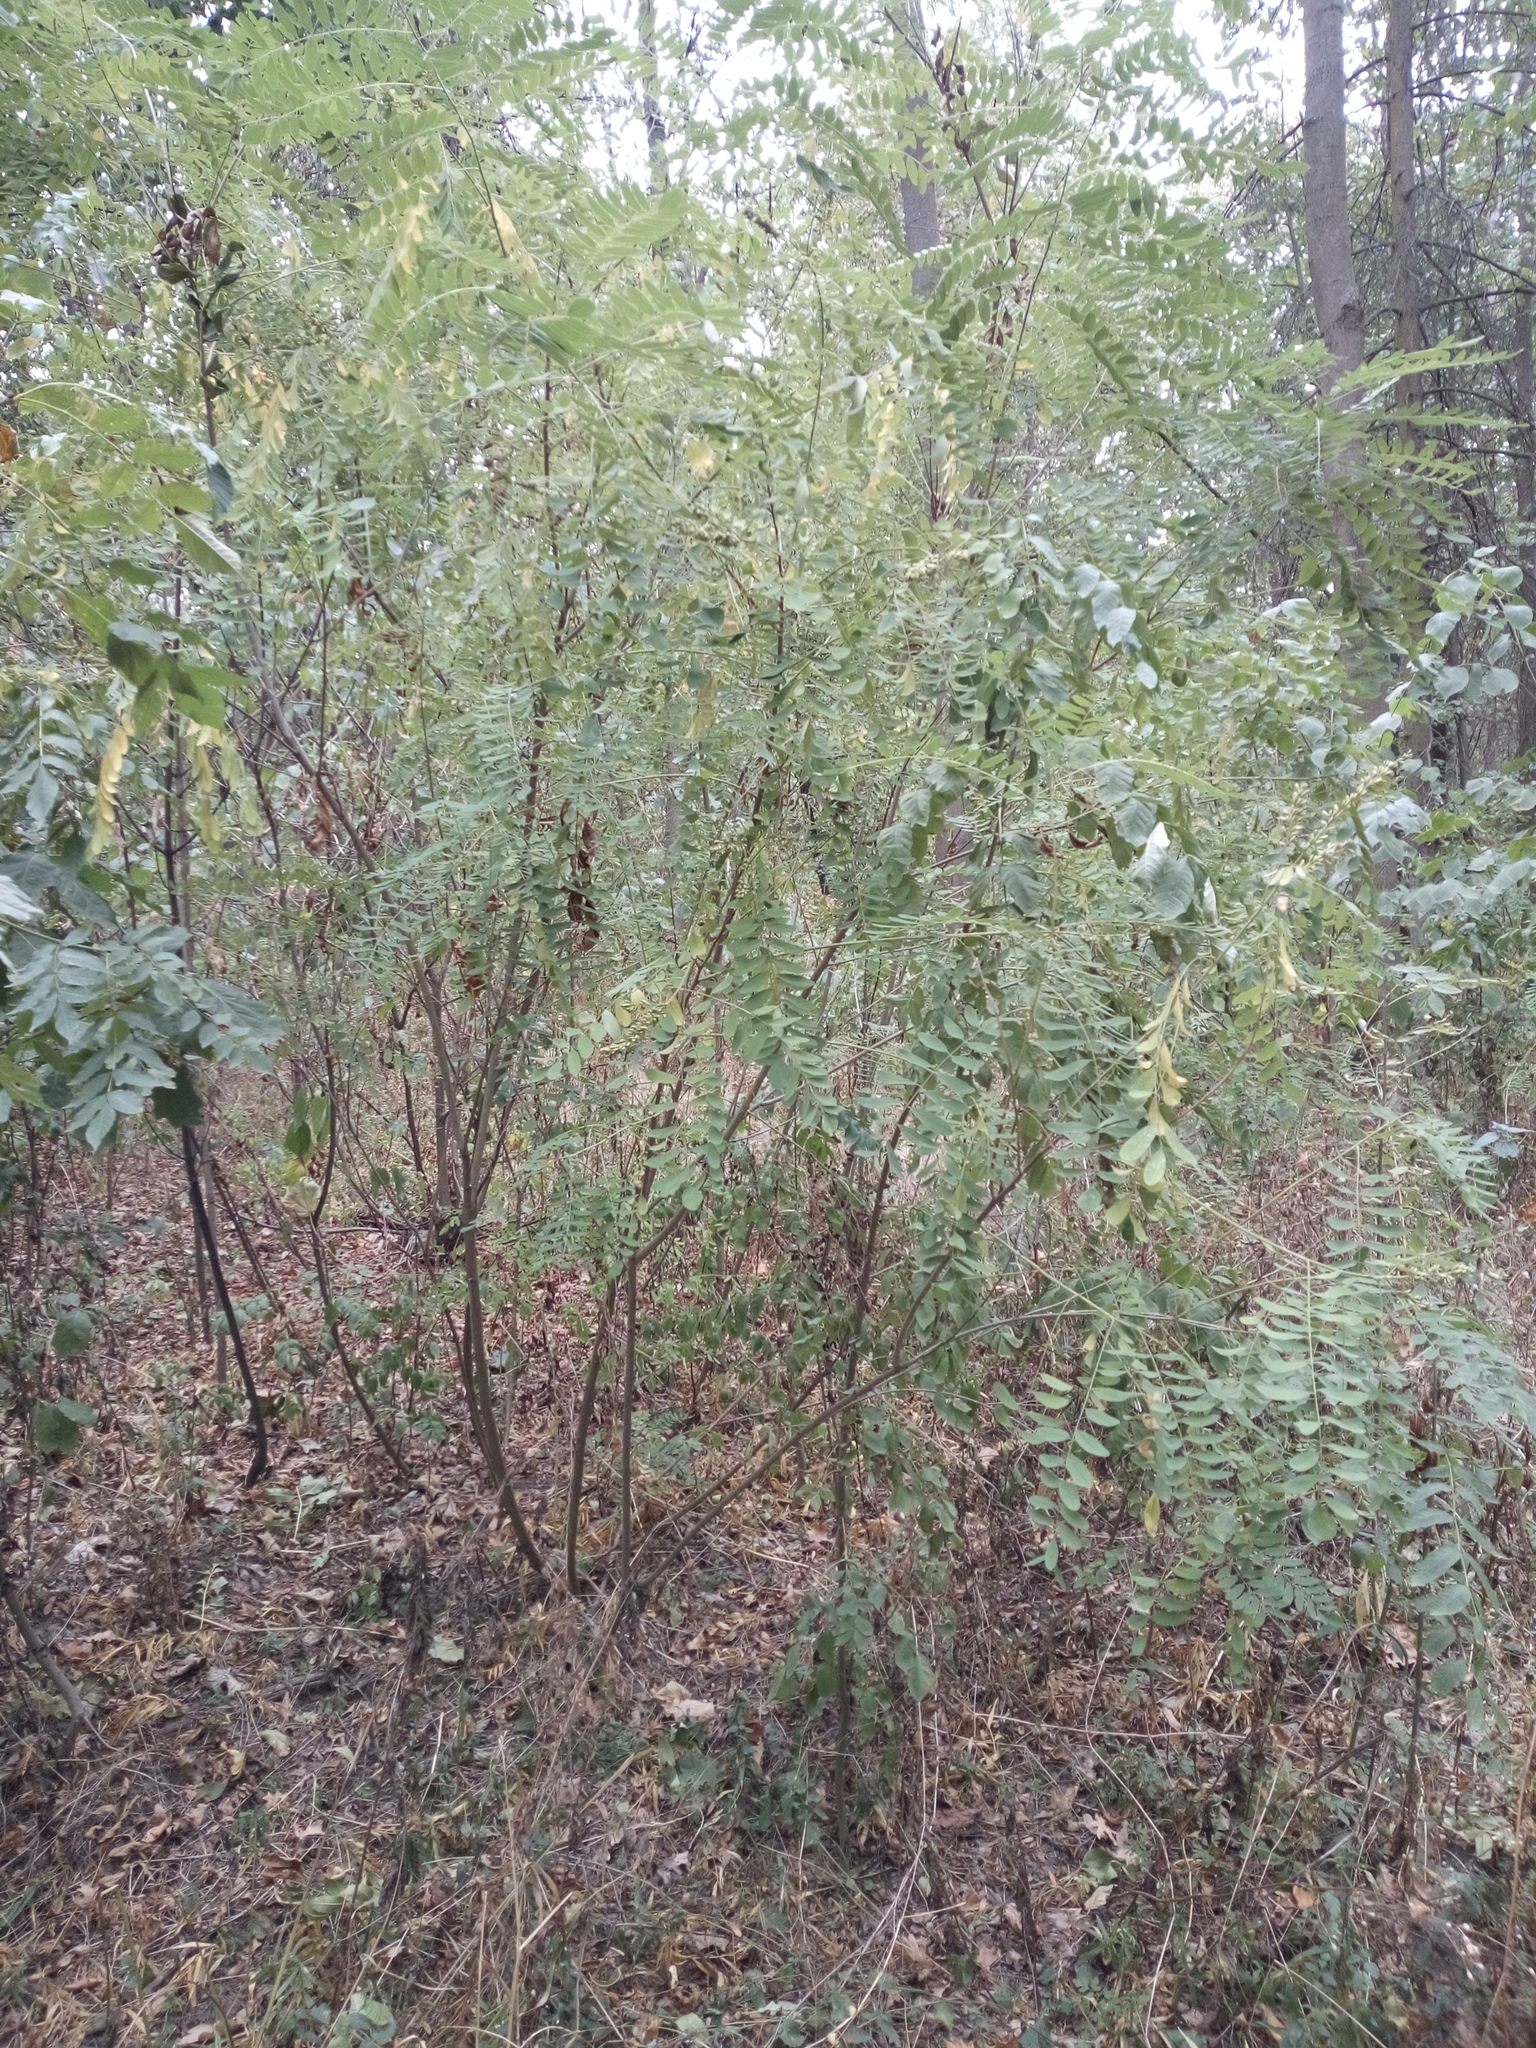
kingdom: Plantae
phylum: Tracheophyta
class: Magnoliopsida
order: Fabales
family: Fabaceae
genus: Amorpha
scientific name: Amorpha fruticosa
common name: False indigo
